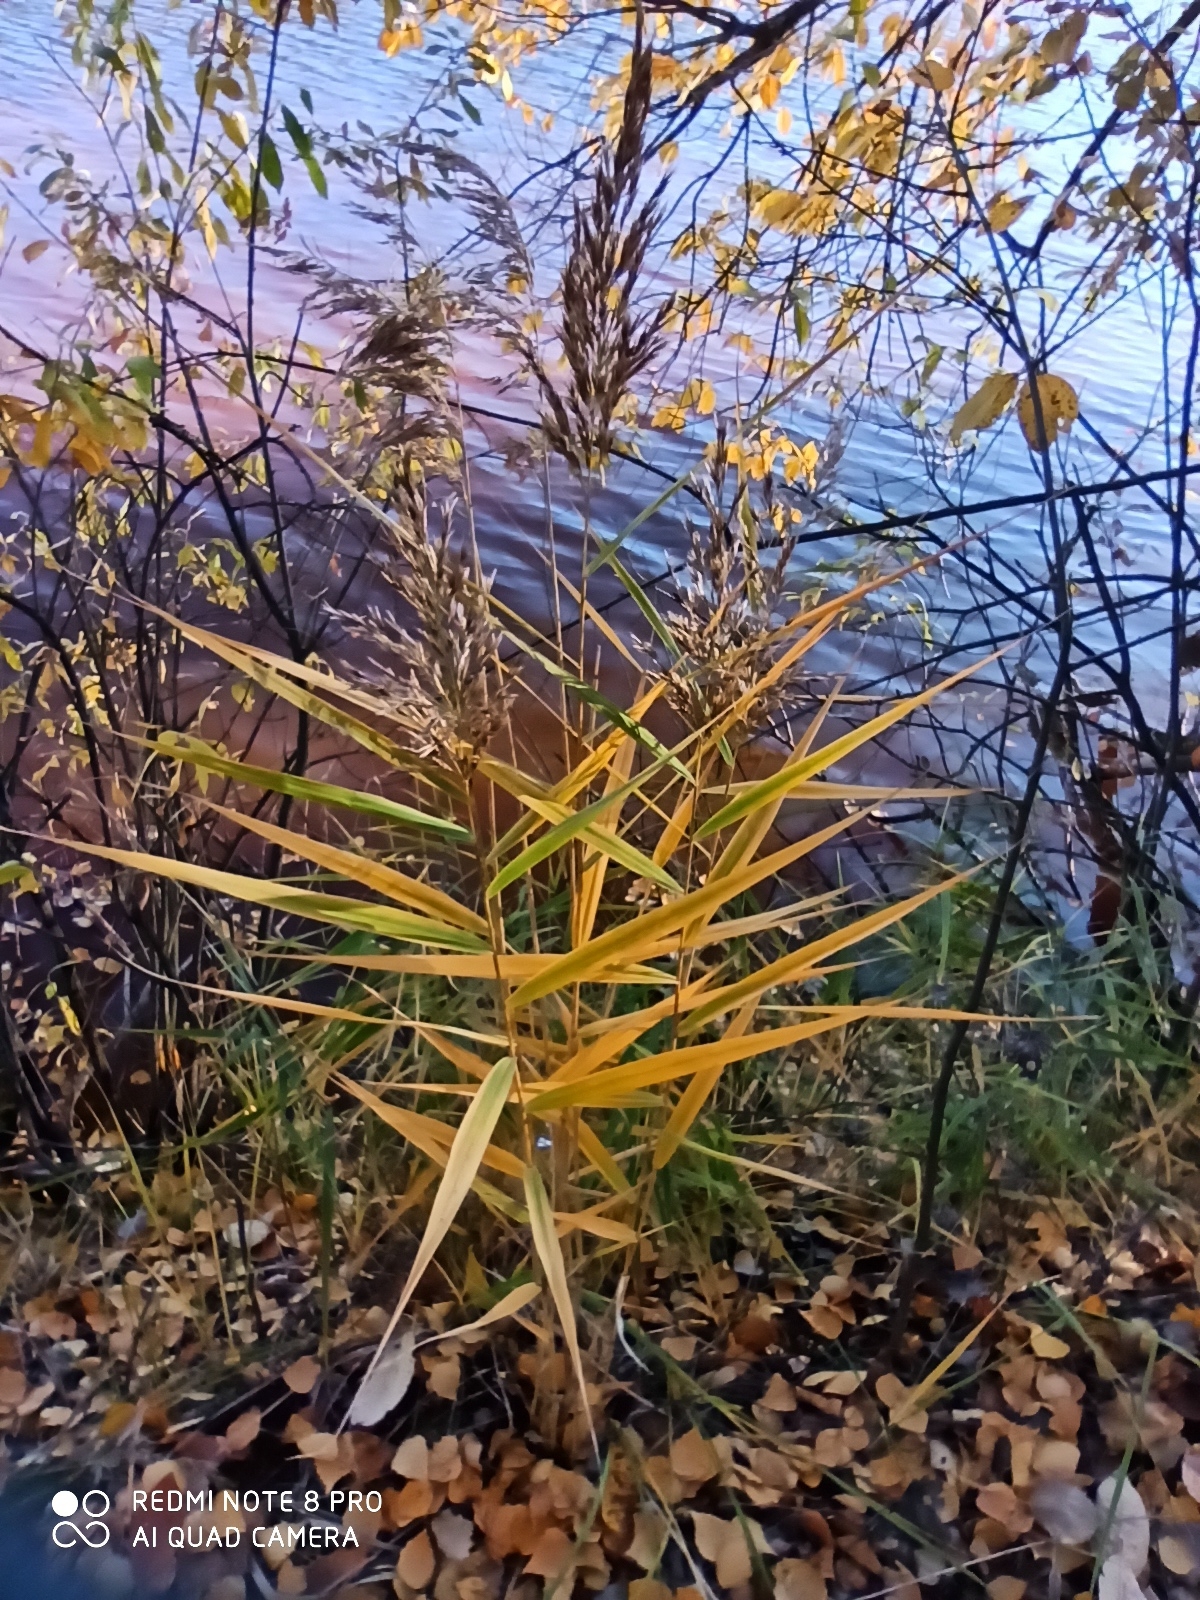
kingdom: Plantae
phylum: Tracheophyta
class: Liliopsida
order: Poales
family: Poaceae
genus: Phragmites
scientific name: Phragmites australis
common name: Common reed
